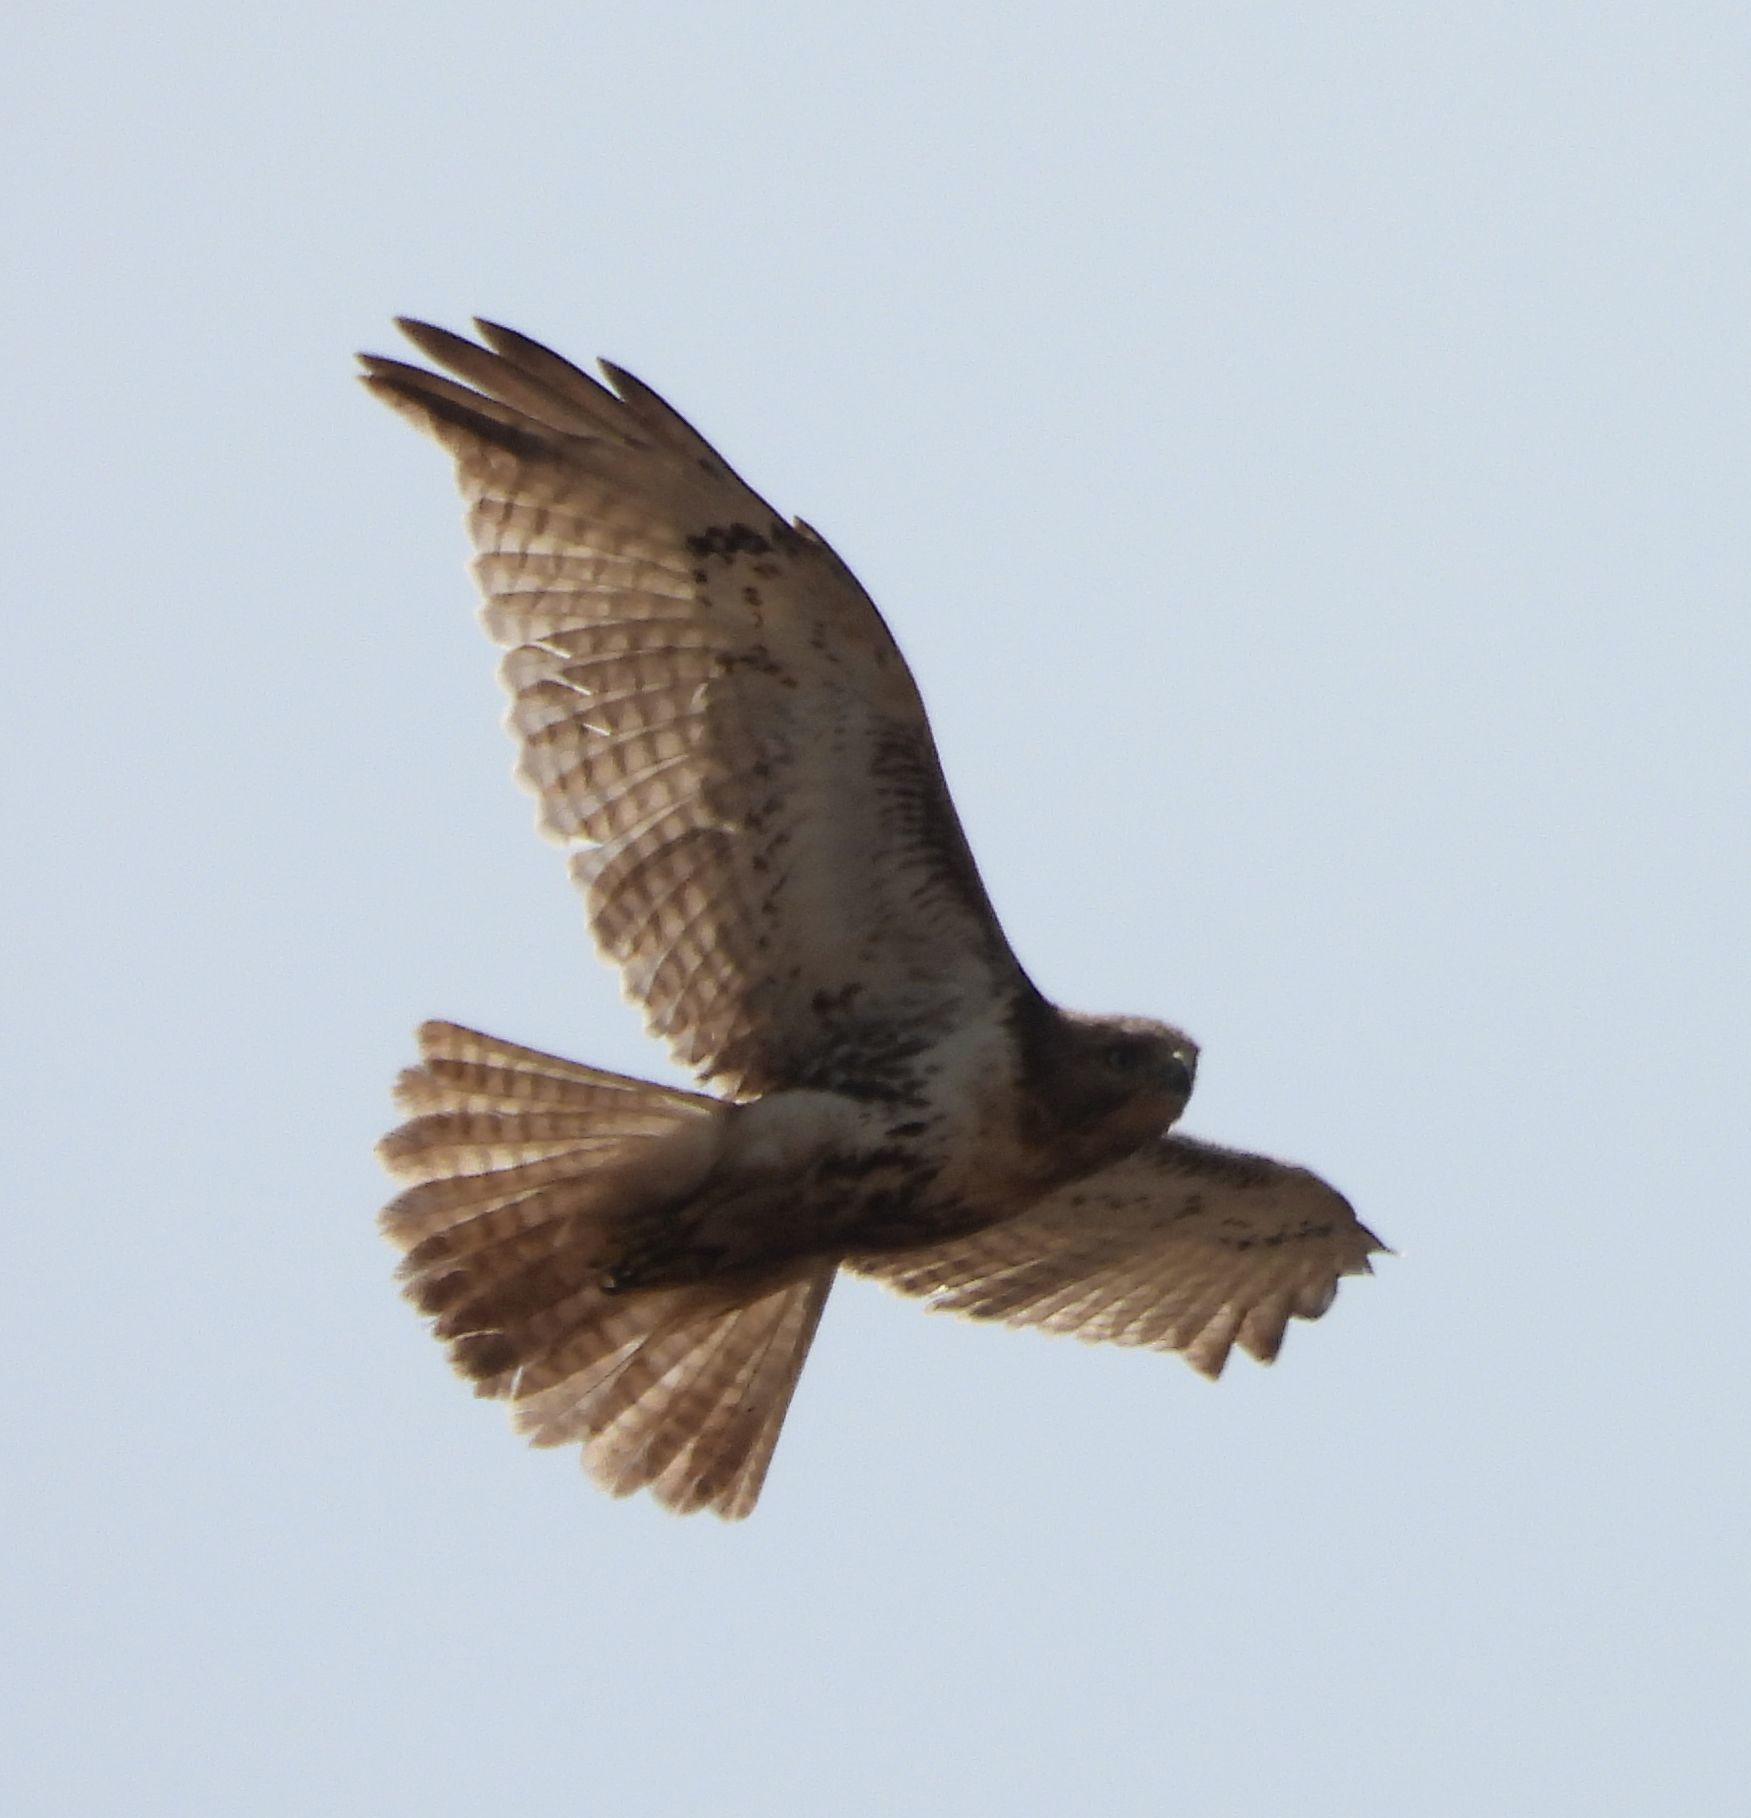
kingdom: Animalia
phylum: Chordata
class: Aves
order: Accipitriformes
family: Accipitridae
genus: Buteo
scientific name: Buteo jamaicensis
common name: Red-tailed hawk
